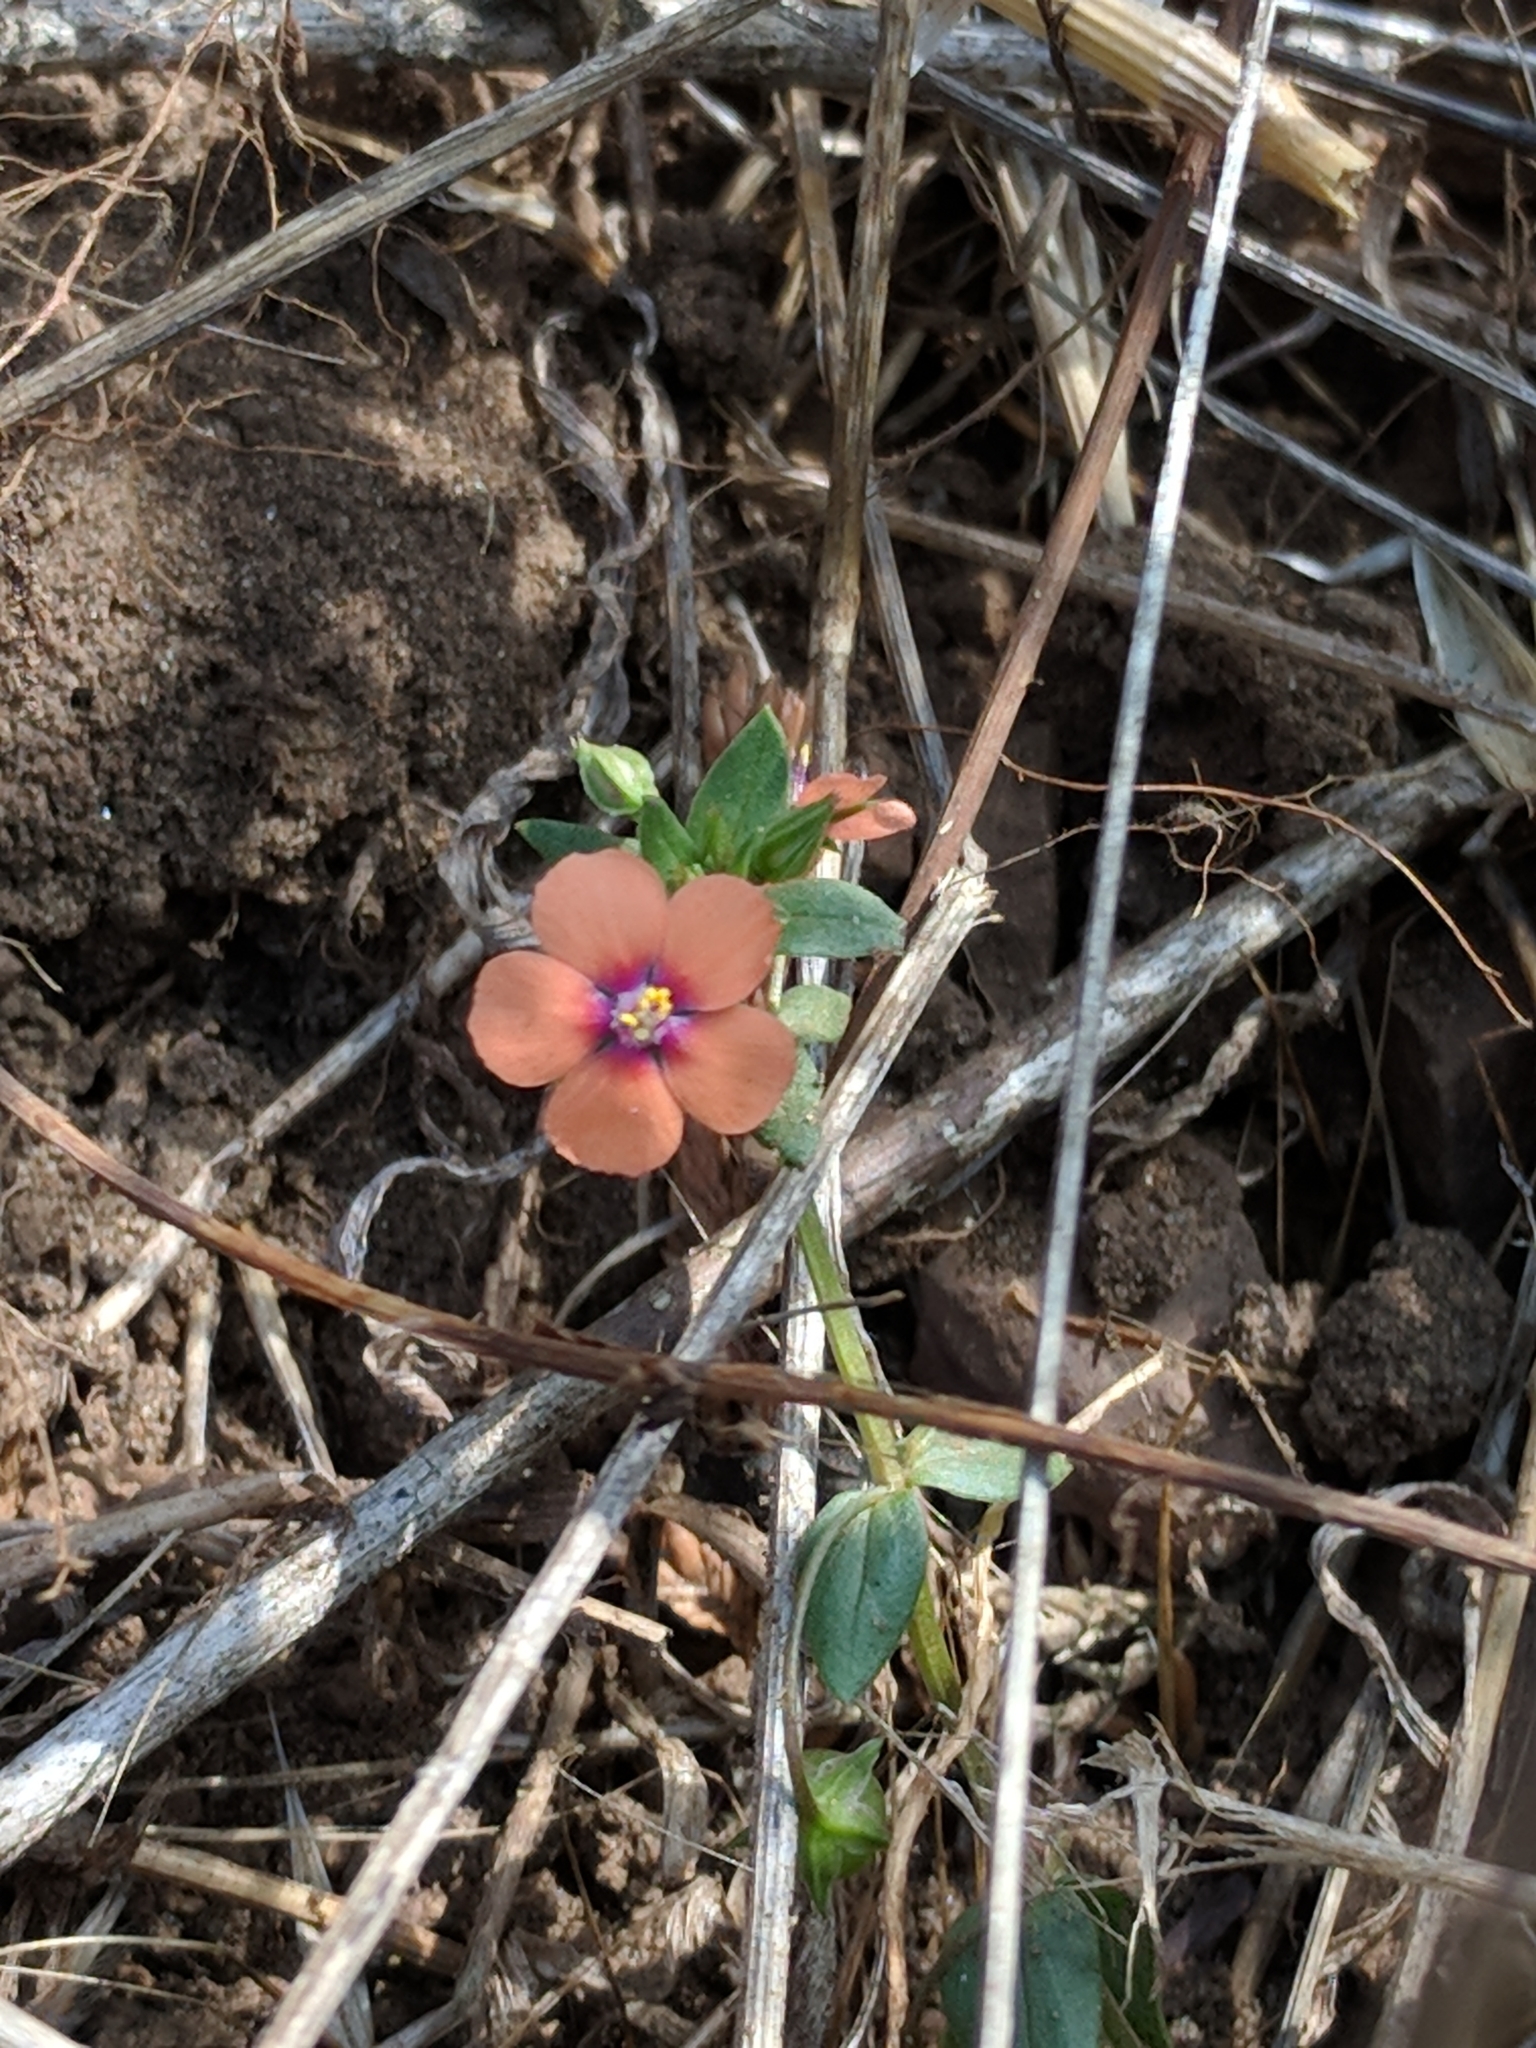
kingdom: Plantae
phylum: Tracheophyta
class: Magnoliopsida
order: Ericales
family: Primulaceae
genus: Lysimachia
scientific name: Lysimachia arvensis
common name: Scarlet pimpernel
